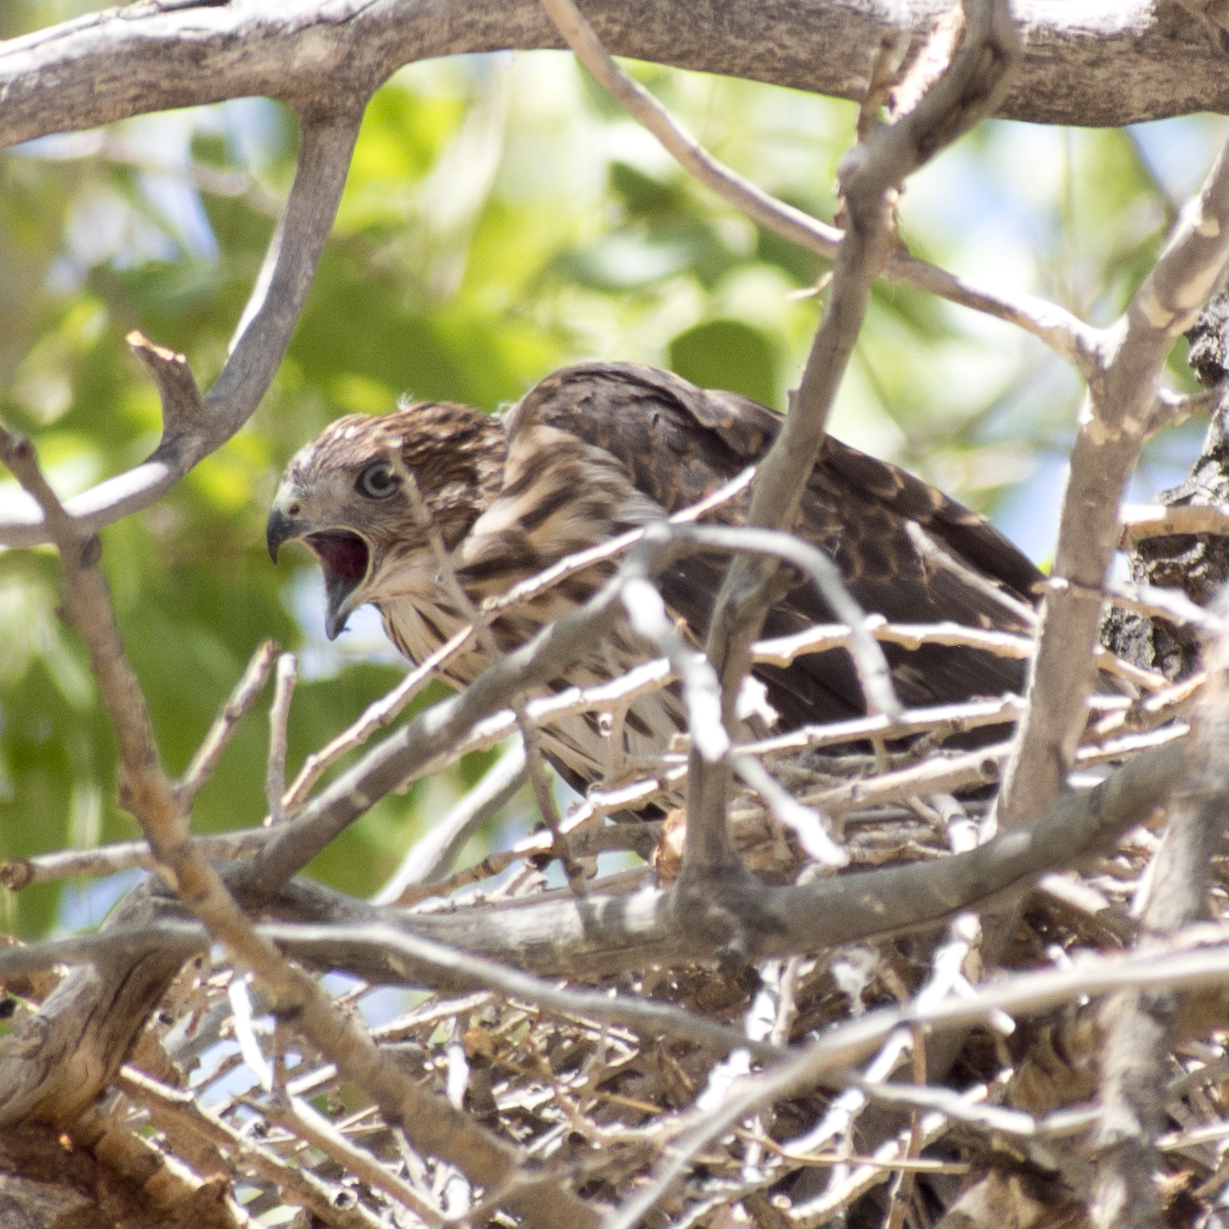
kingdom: Animalia
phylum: Chordata
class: Aves
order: Accipitriformes
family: Accipitridae
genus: Accipiter
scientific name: Accipiter cooperii
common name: Cooper's hawk
